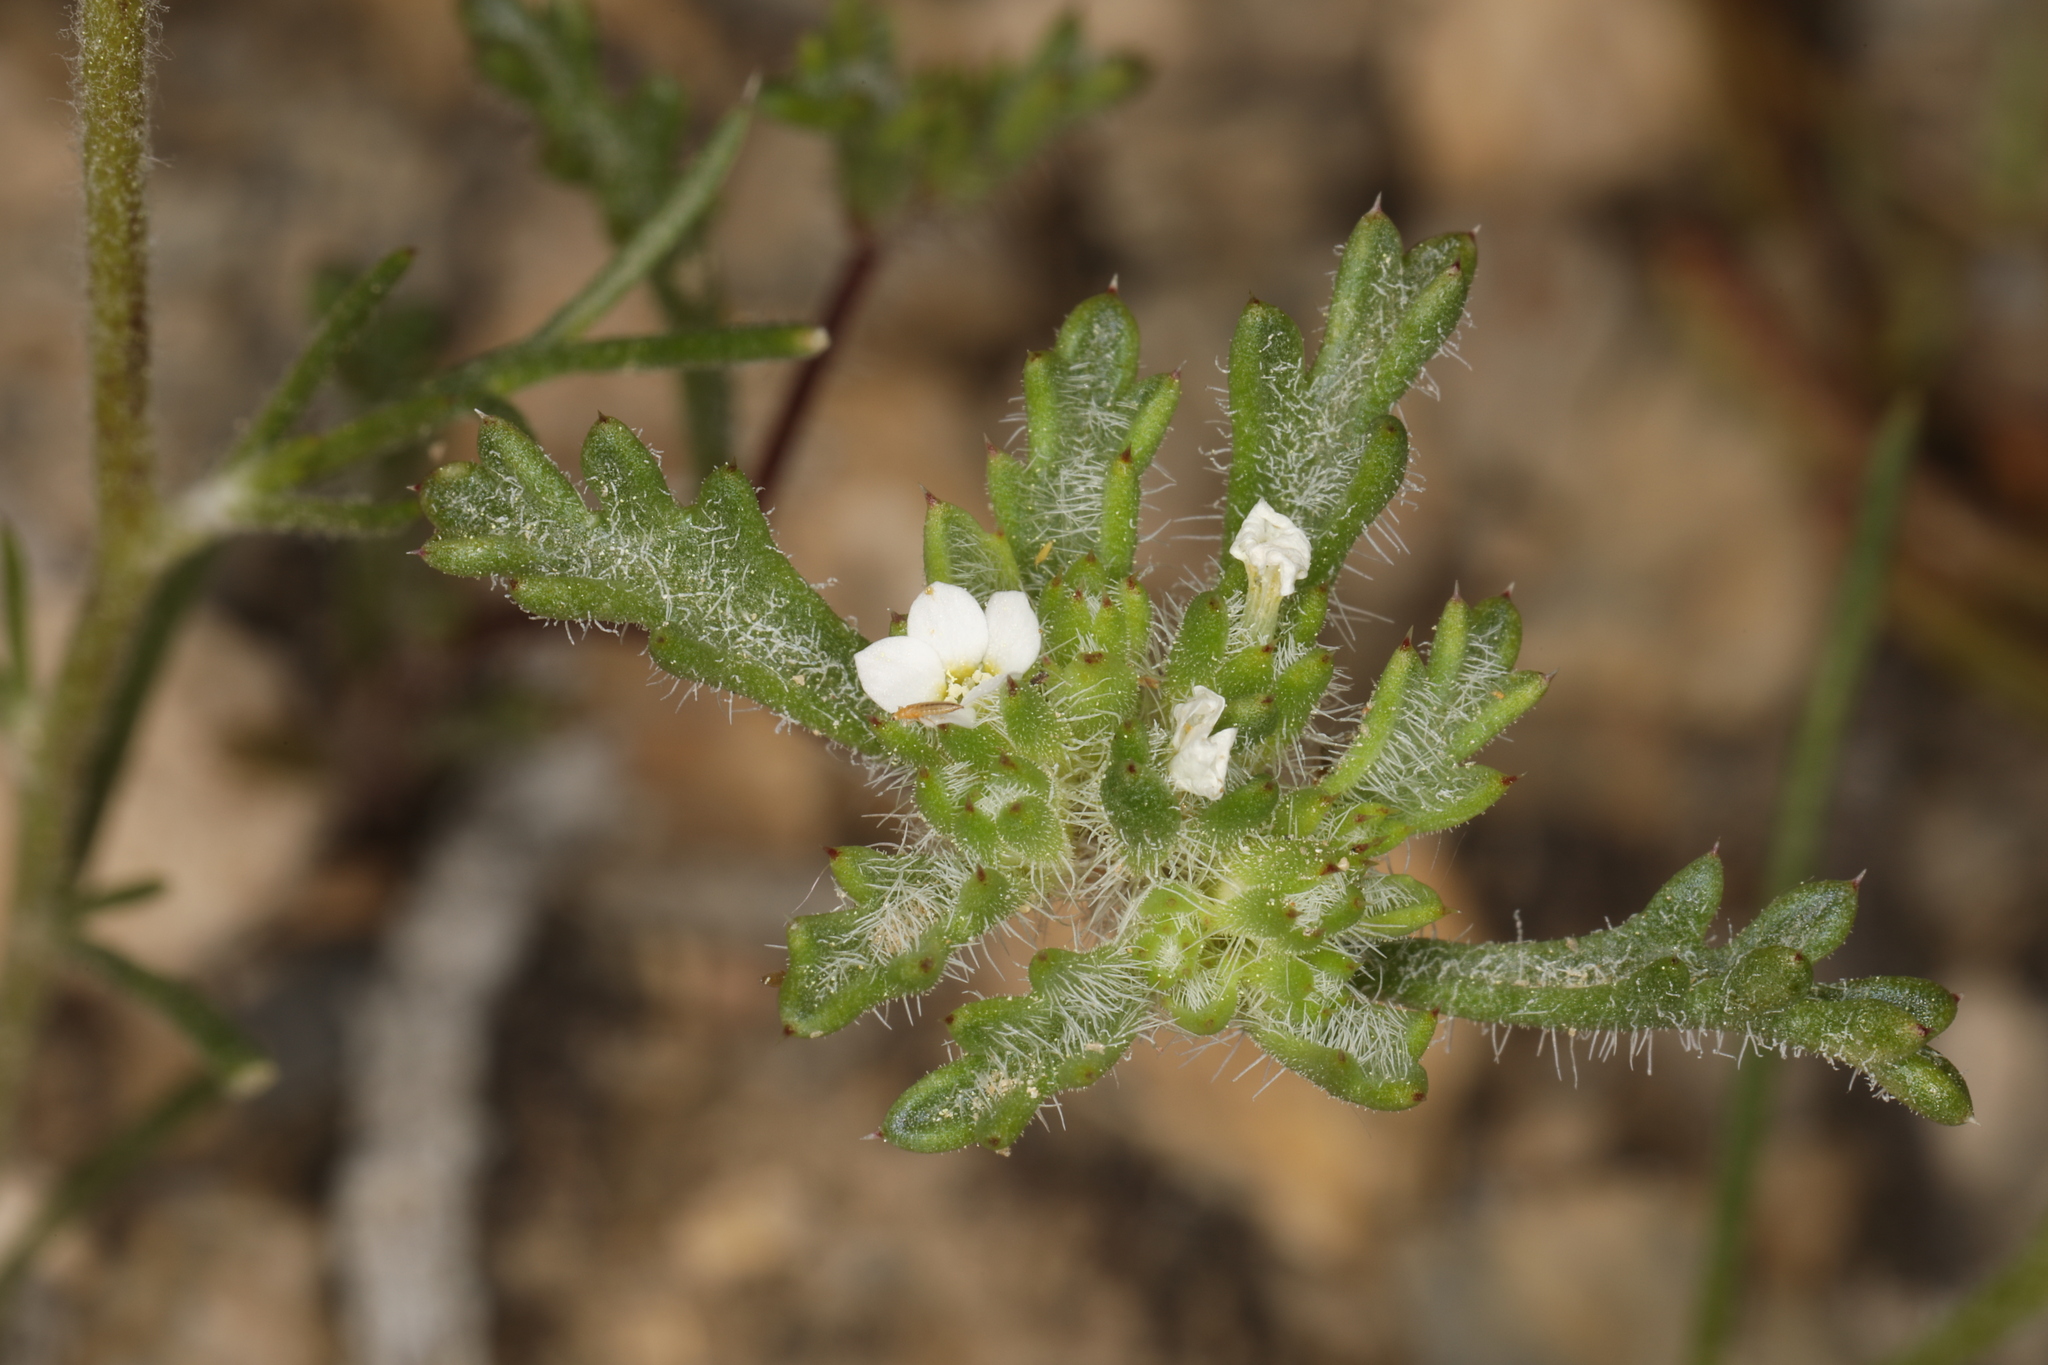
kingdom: Plantae
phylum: Tracheophyta
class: Magnoliopsida
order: Ericales
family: Polemoniaceae
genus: Ipomopsis
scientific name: Ipomopsis polycladon
